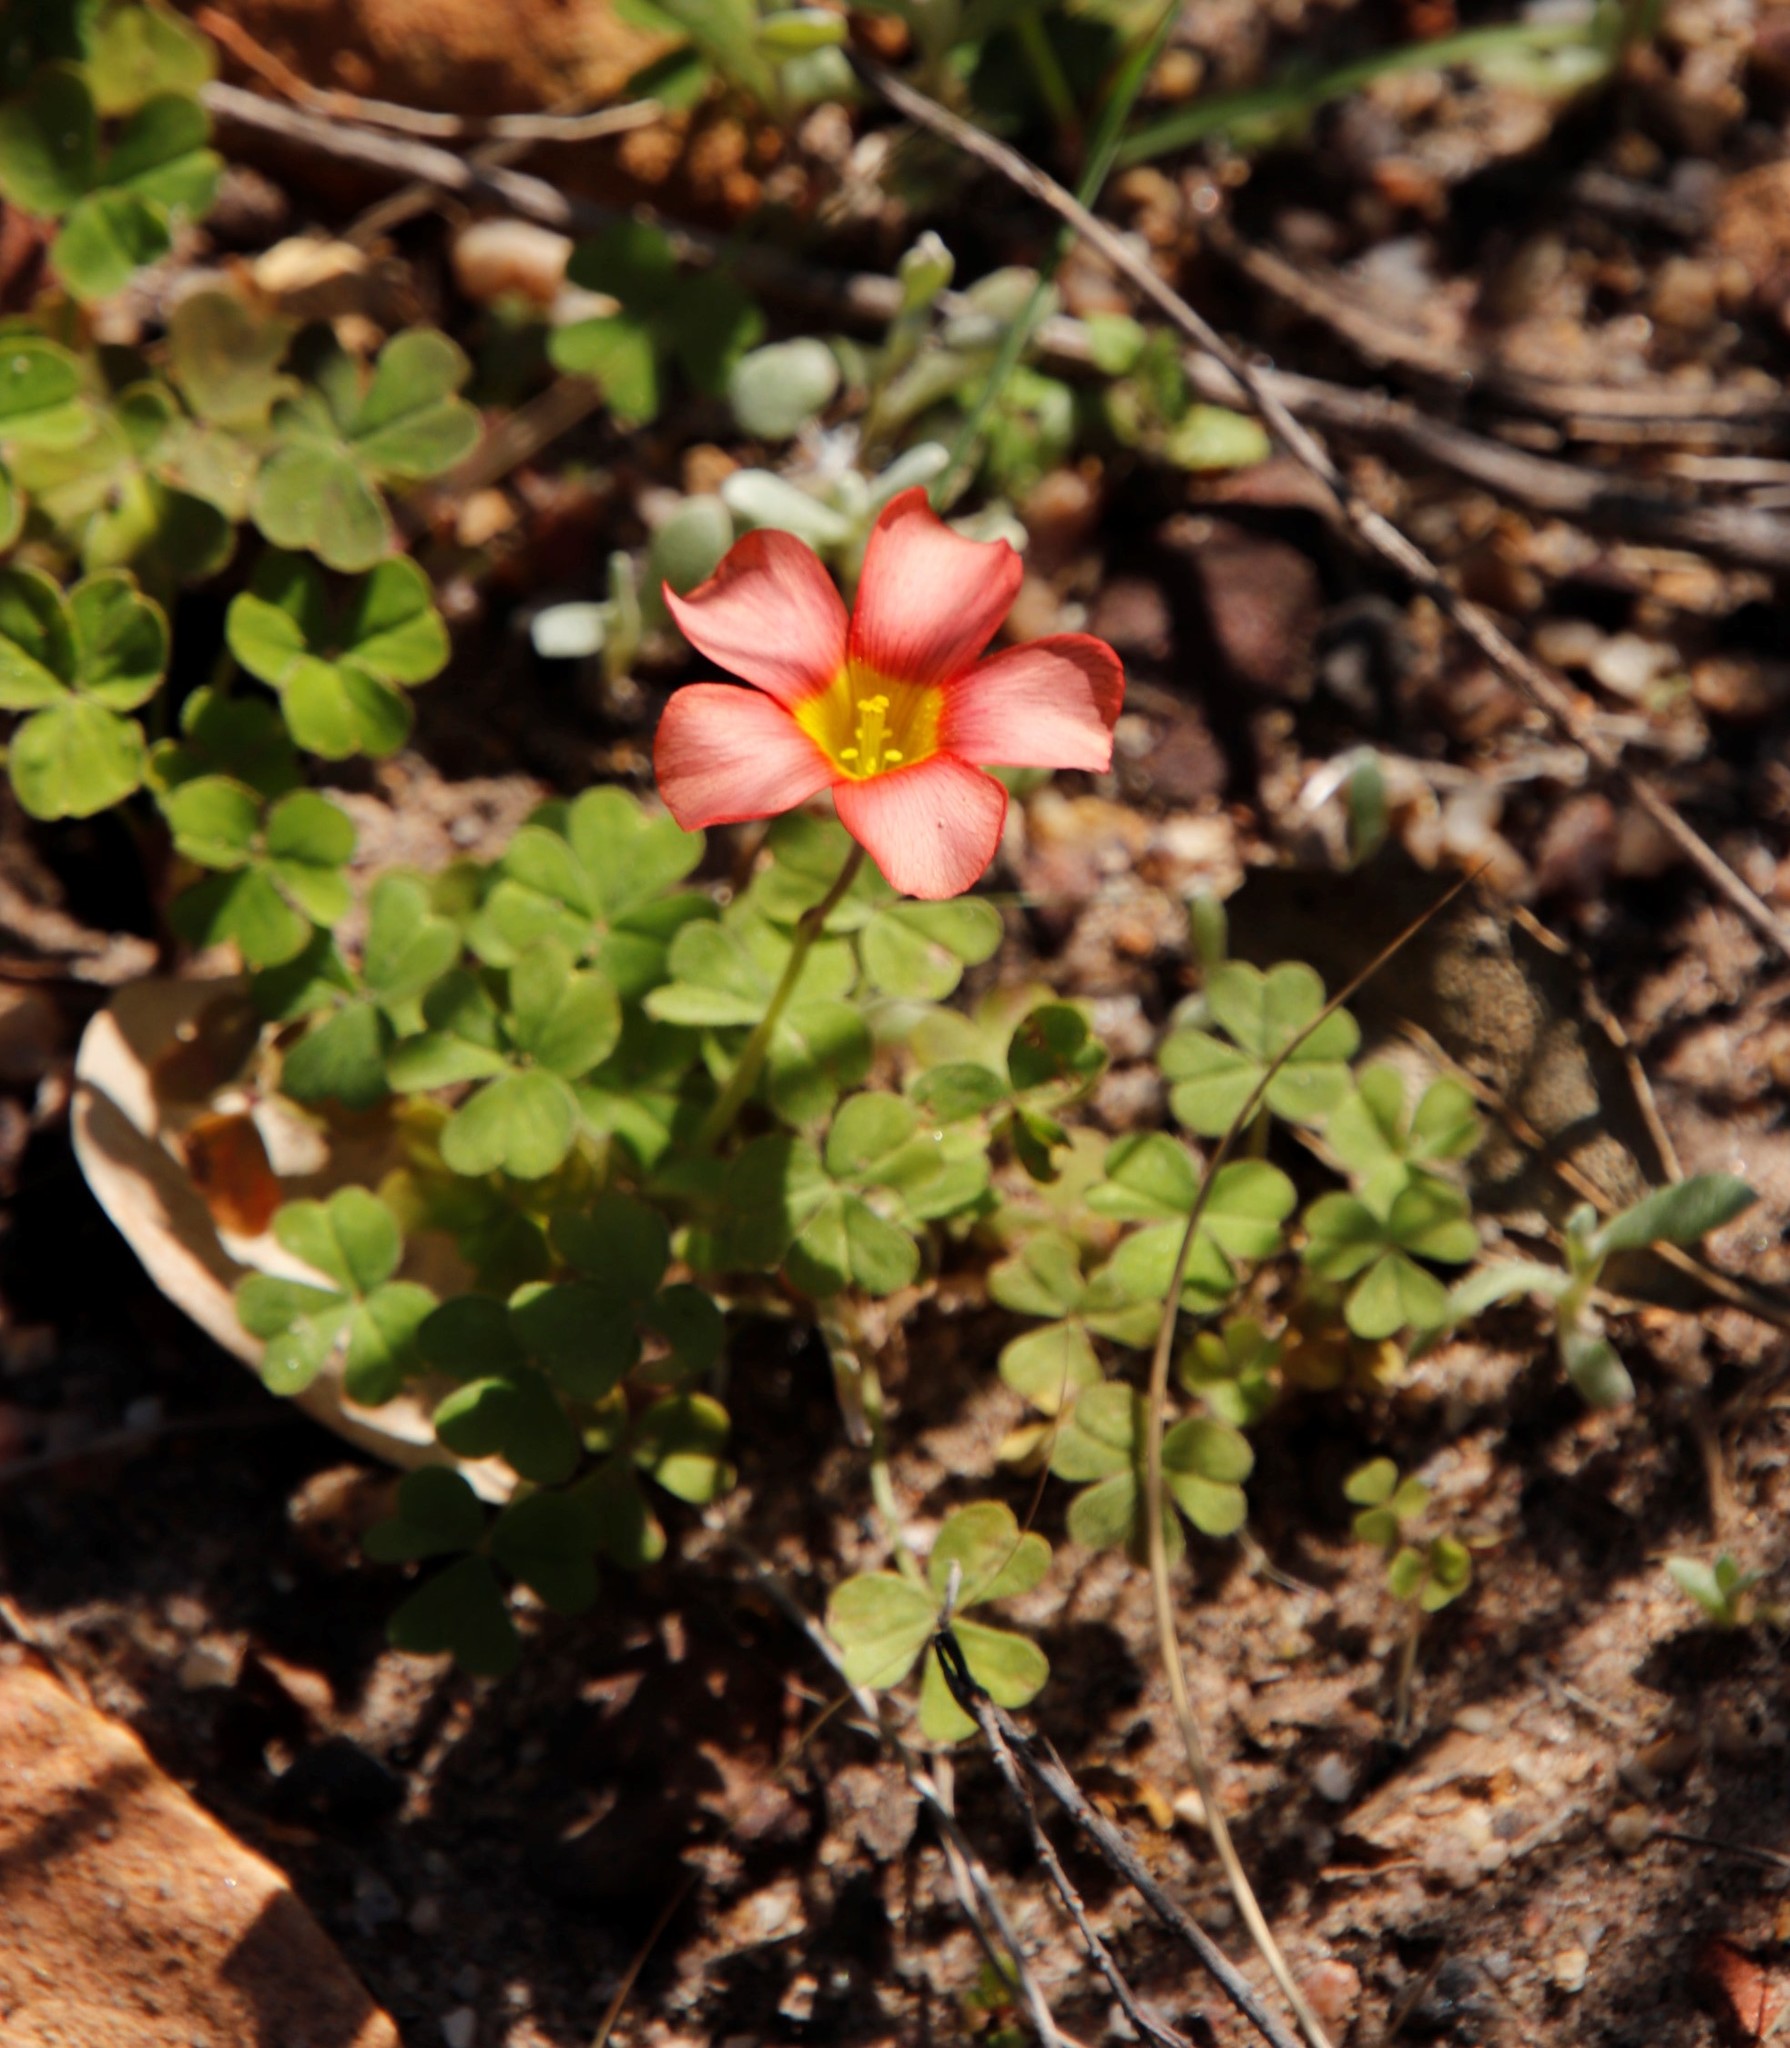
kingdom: Plantae
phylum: Tracheophyta
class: Magnoliopsida
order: Oxalidales
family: Oxalidaceae
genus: Oxalis
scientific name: Oxalis obtusa
